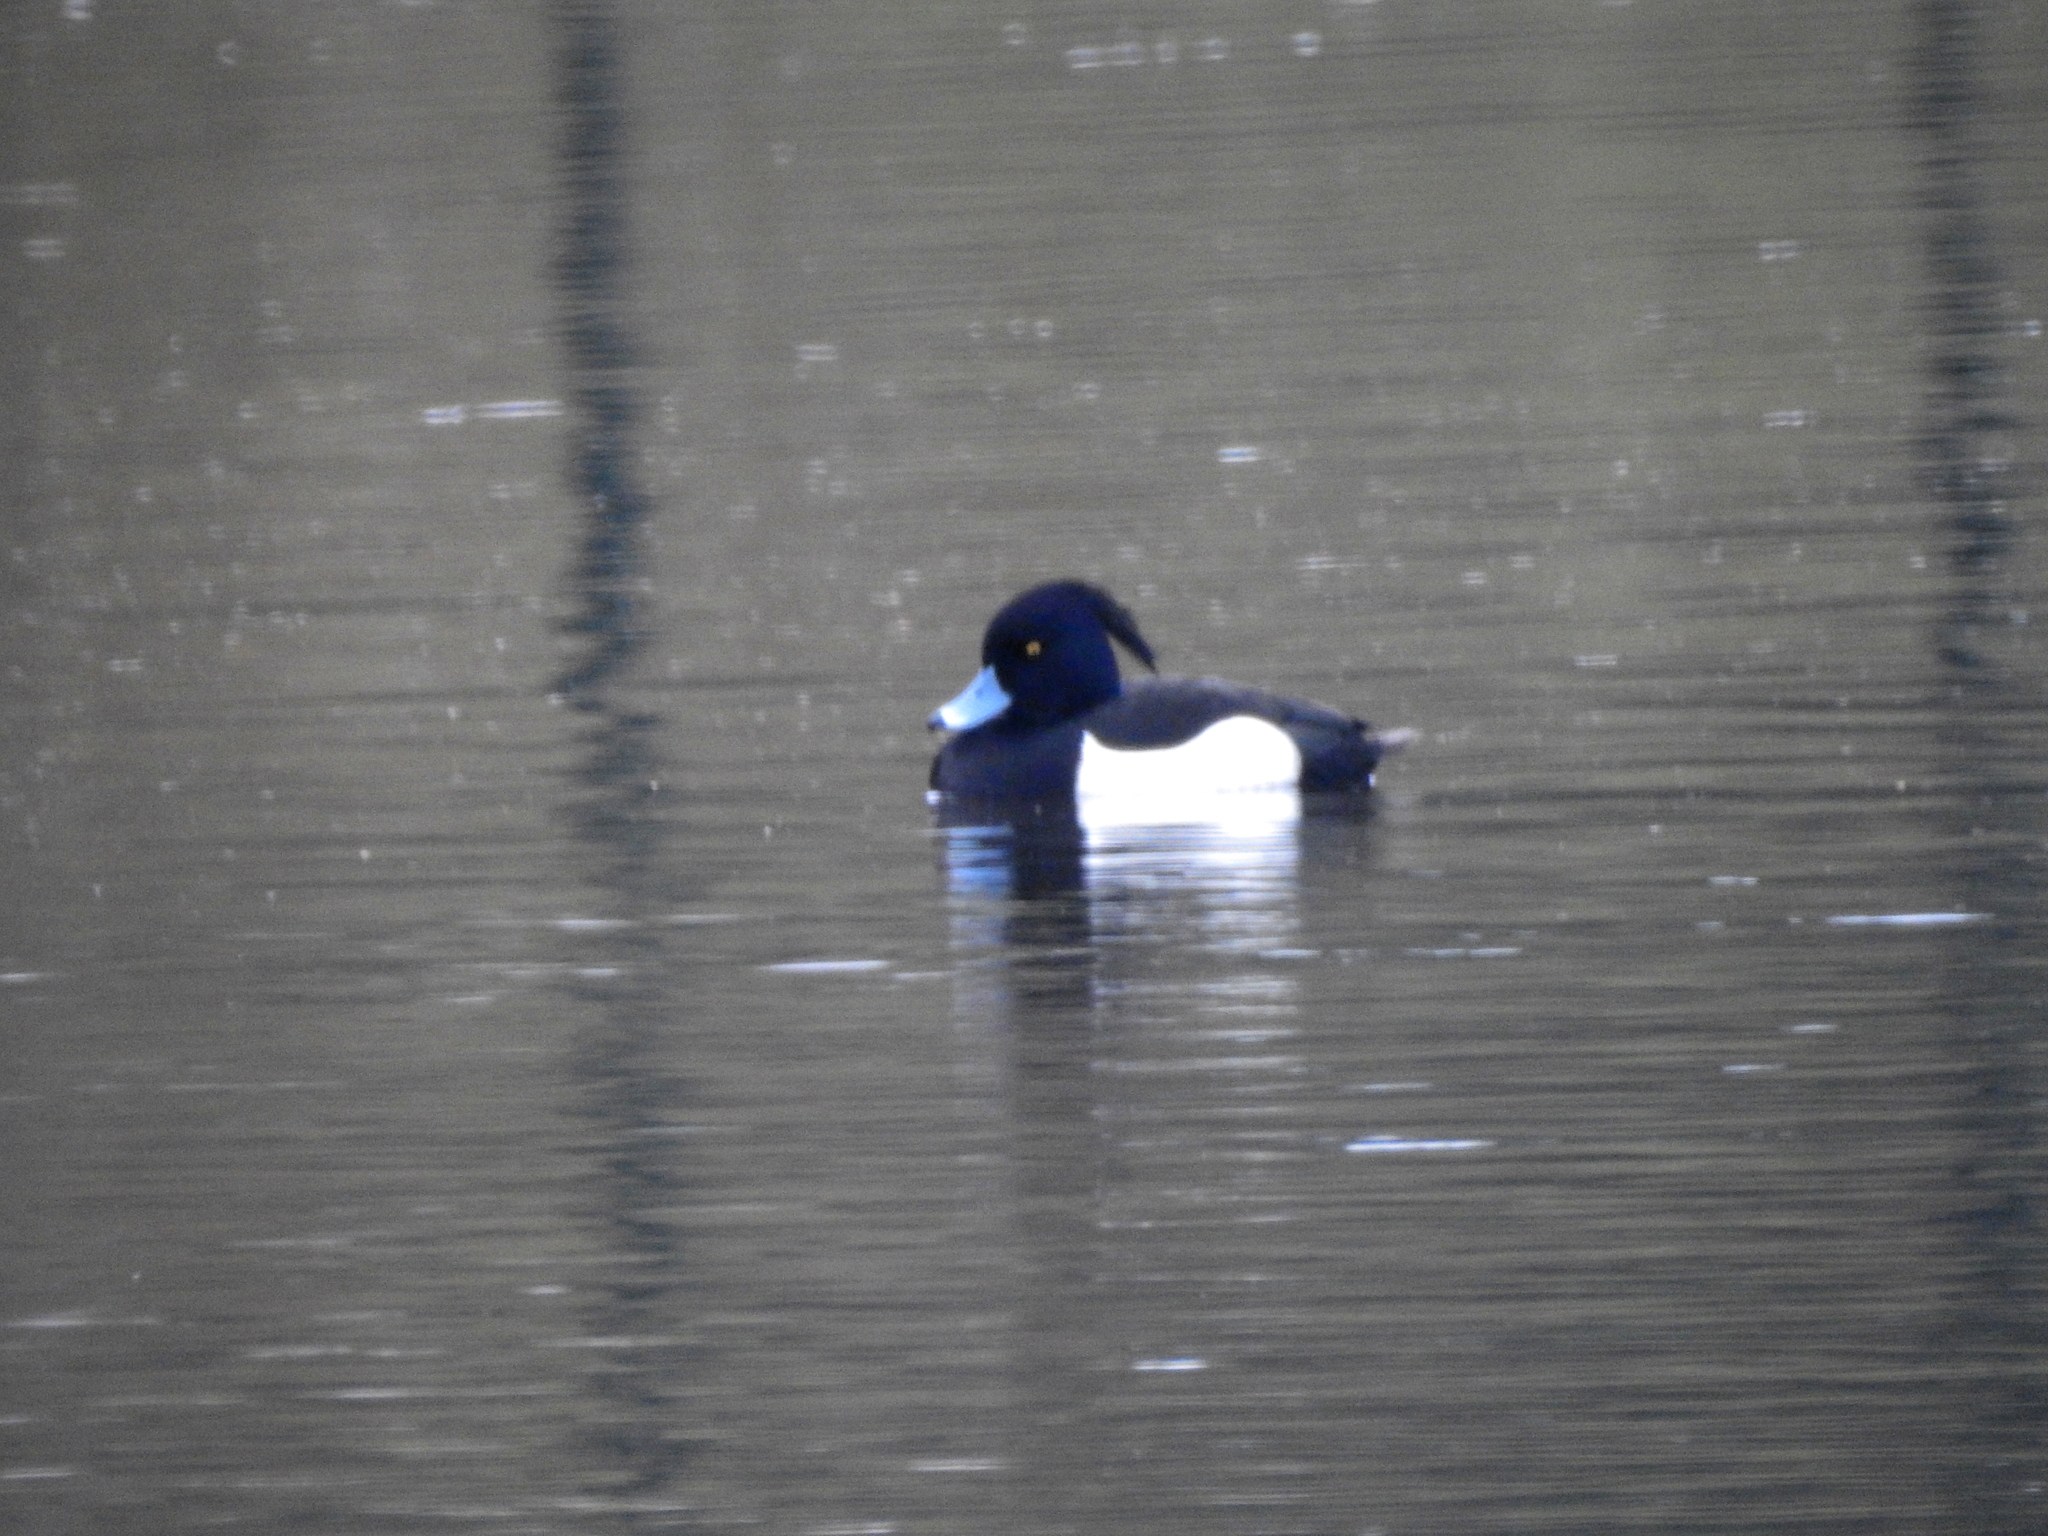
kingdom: Animalia
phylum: Chordata
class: Aves
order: Anseriformes
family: Anatidae
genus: Aythya
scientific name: Aythya fuligula
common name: Tufted duck
